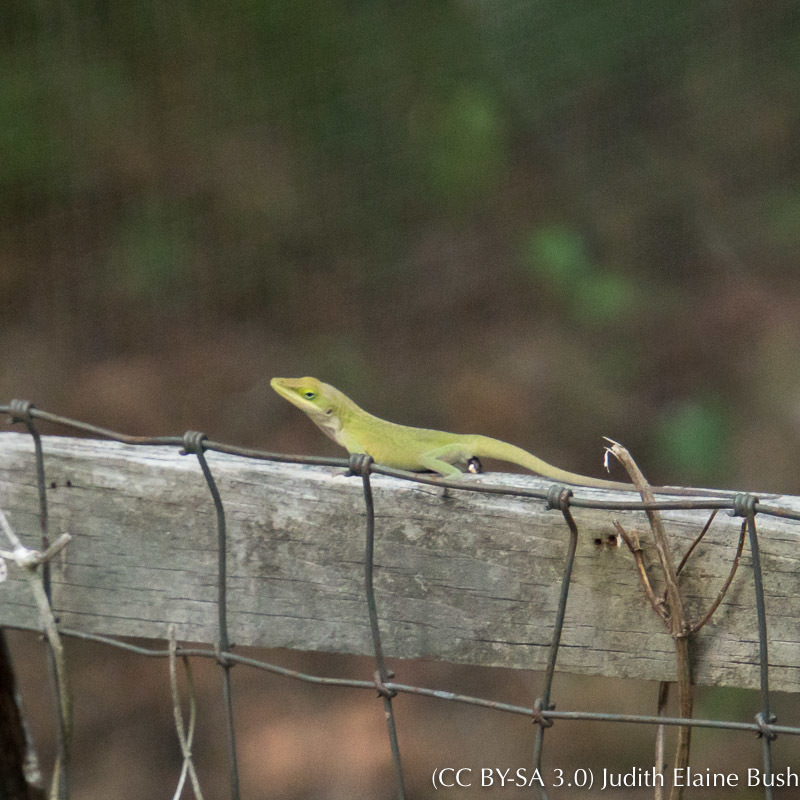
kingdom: Animalia
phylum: Chordata
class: Squamata
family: Dactyloidae
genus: Anolis
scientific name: Anolis carolinensis
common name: Green anole
